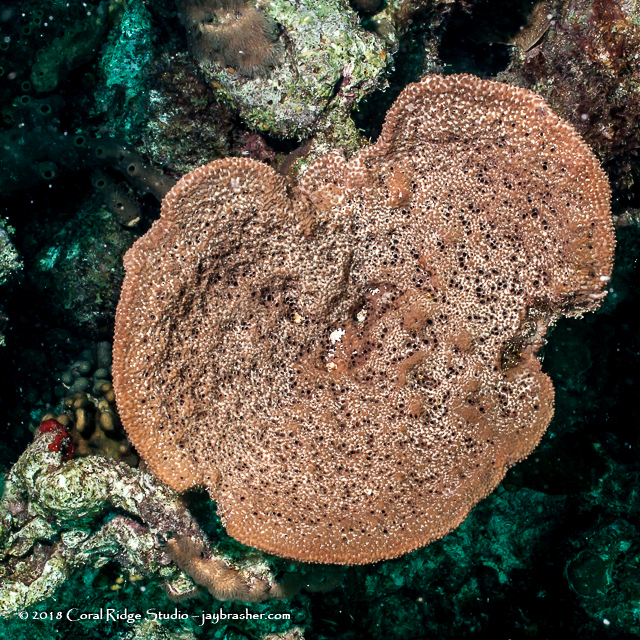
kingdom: Animalia
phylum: Porifera
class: Demospongiae
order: Dictyoceratida
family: Irciniidae
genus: Ircinia
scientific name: Ircinia campana
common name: Vase sponge
